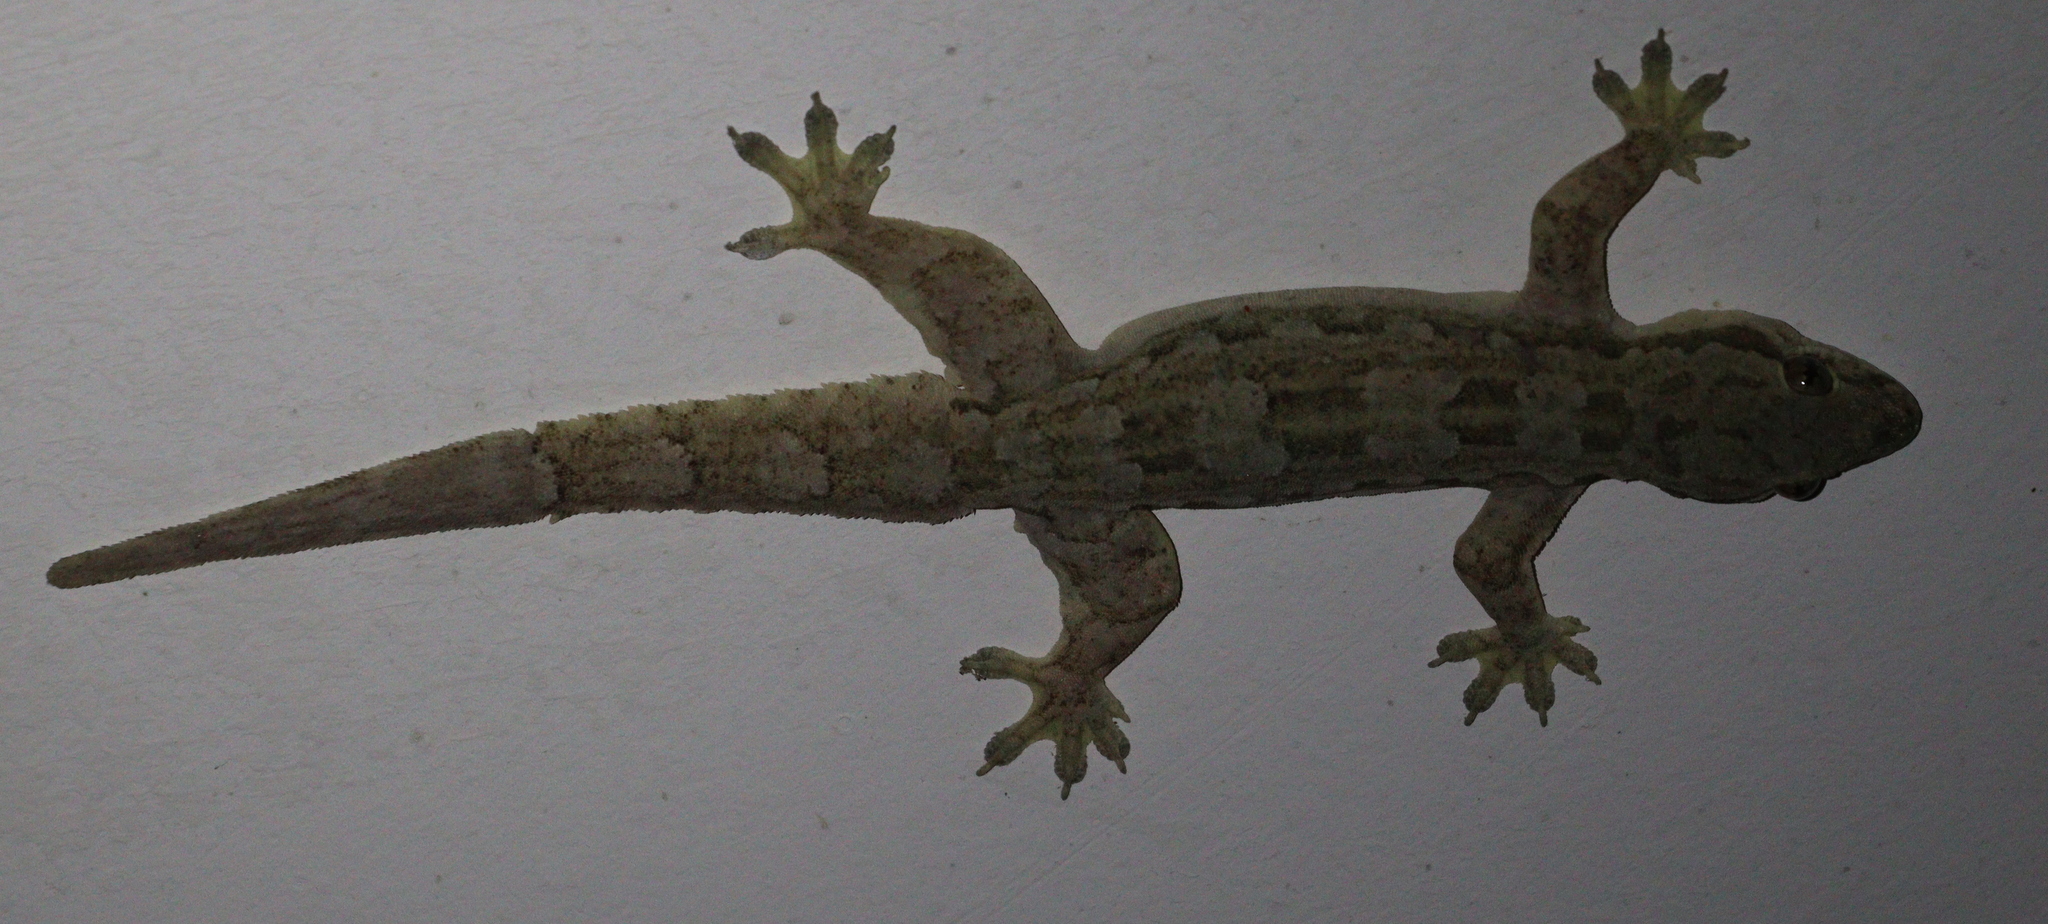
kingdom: Animalia
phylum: Chordata
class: Squamata
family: Gekkonidae
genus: Hemidactylus
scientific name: Hemidactylus platyurus
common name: Flat-tailed house gecko
